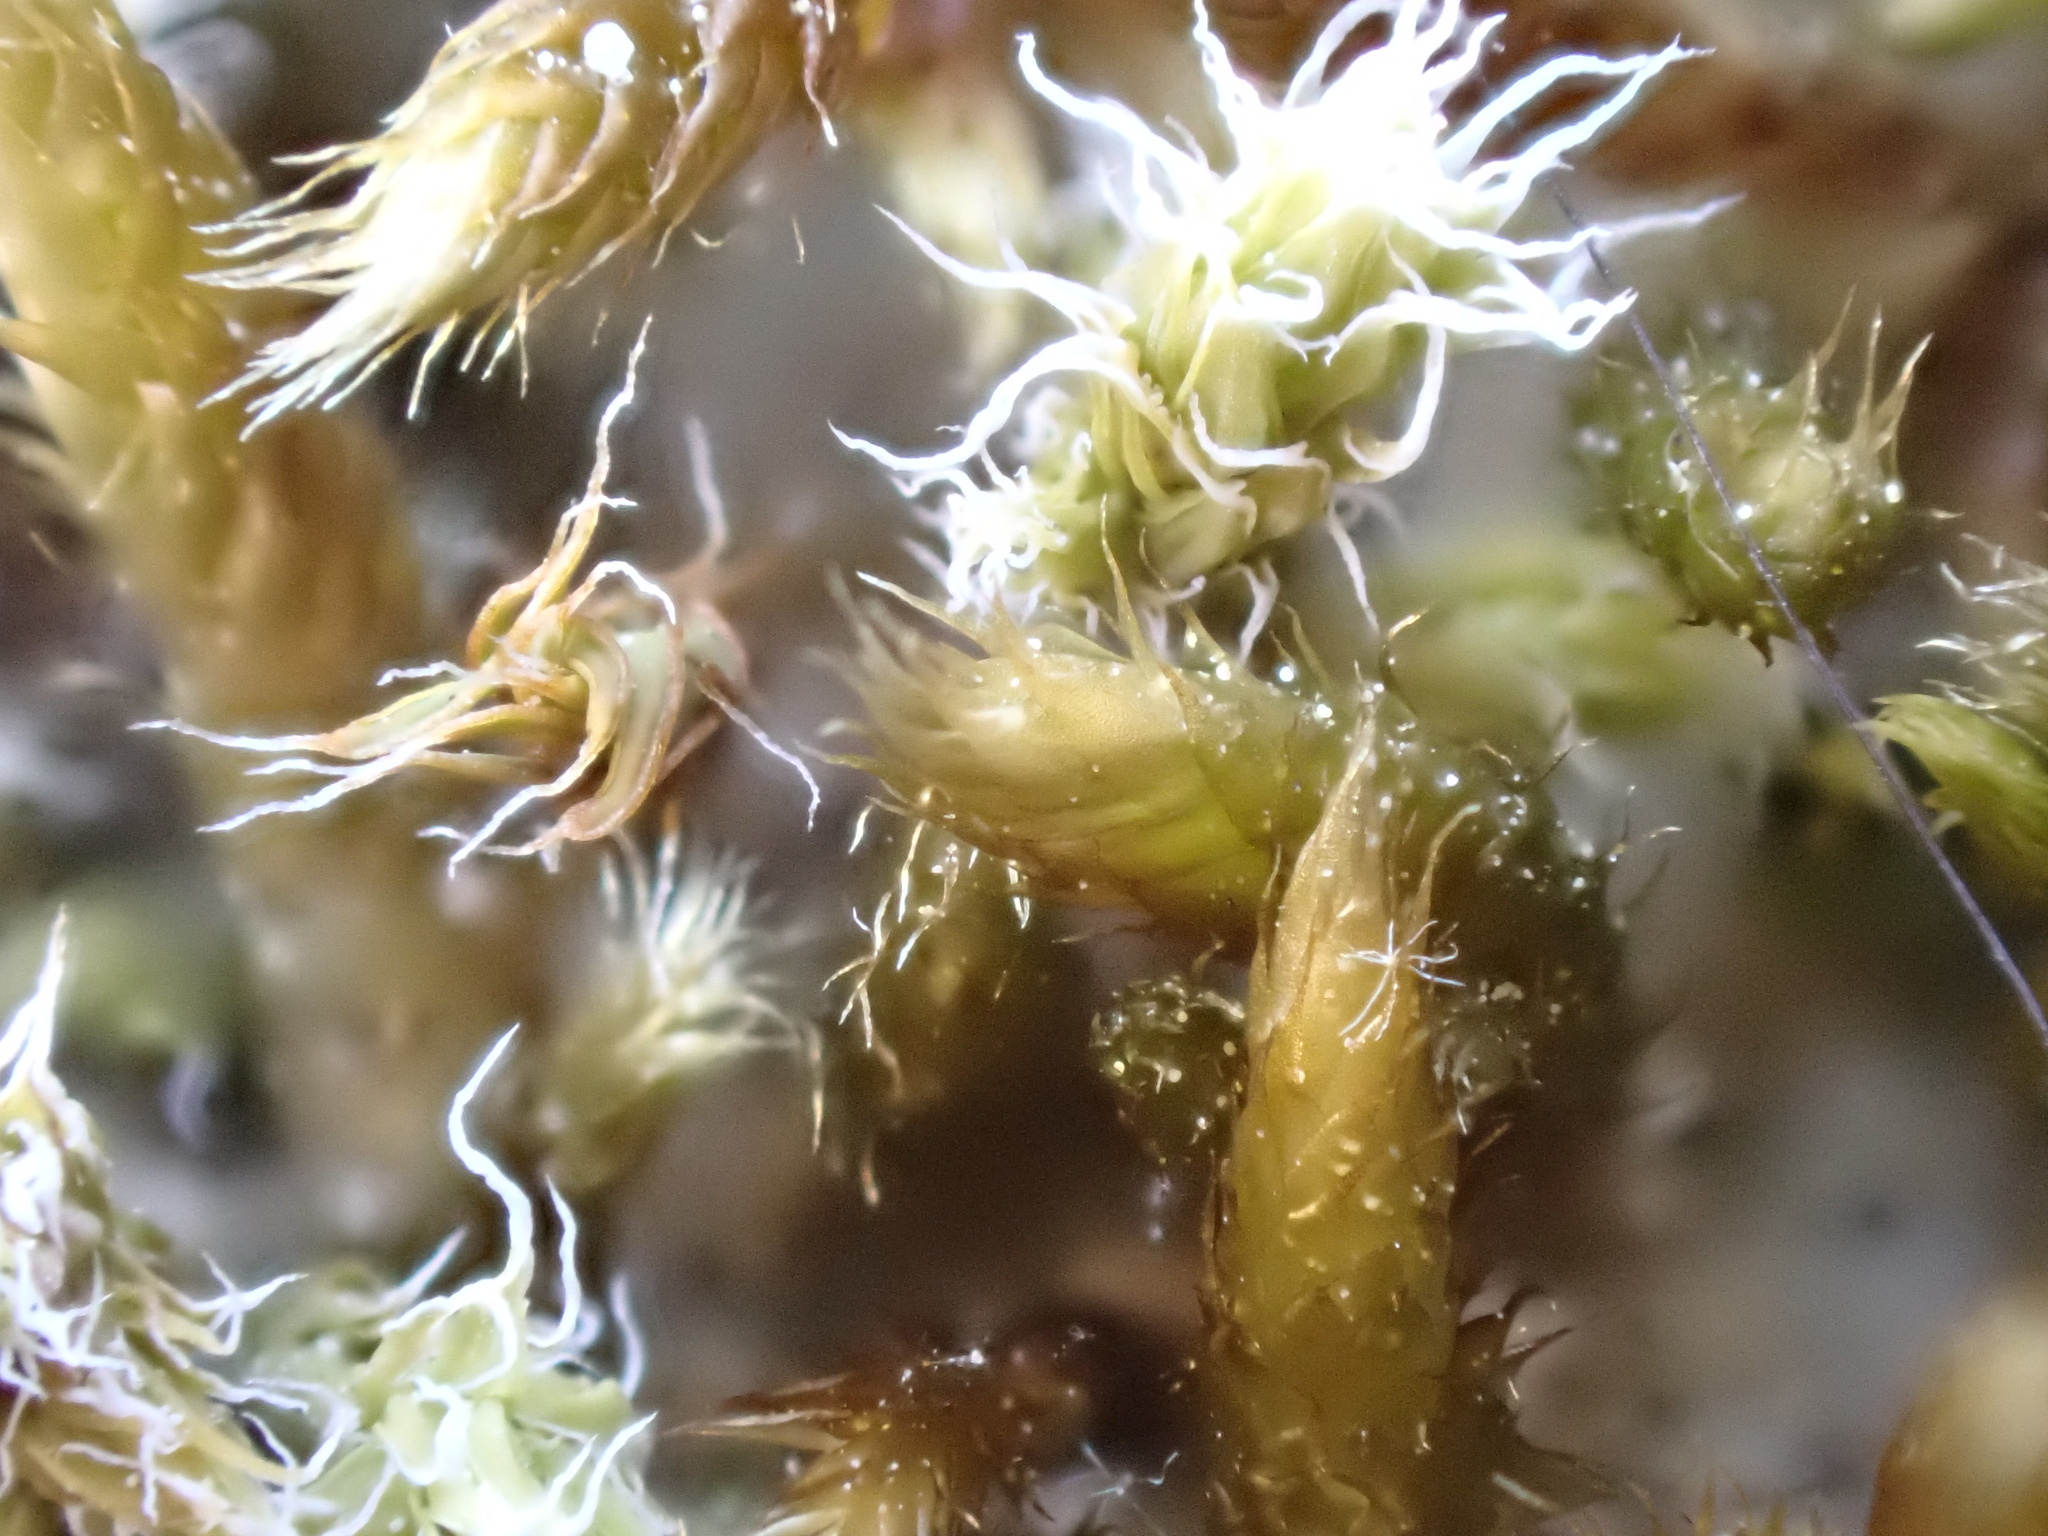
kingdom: Plantae
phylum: Bryophyta
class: Bryopsida
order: Grimmiales
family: Grimmiaceae
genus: Niphotrichum
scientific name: Niphotrichum canescens
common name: Hoary fringe-moss
